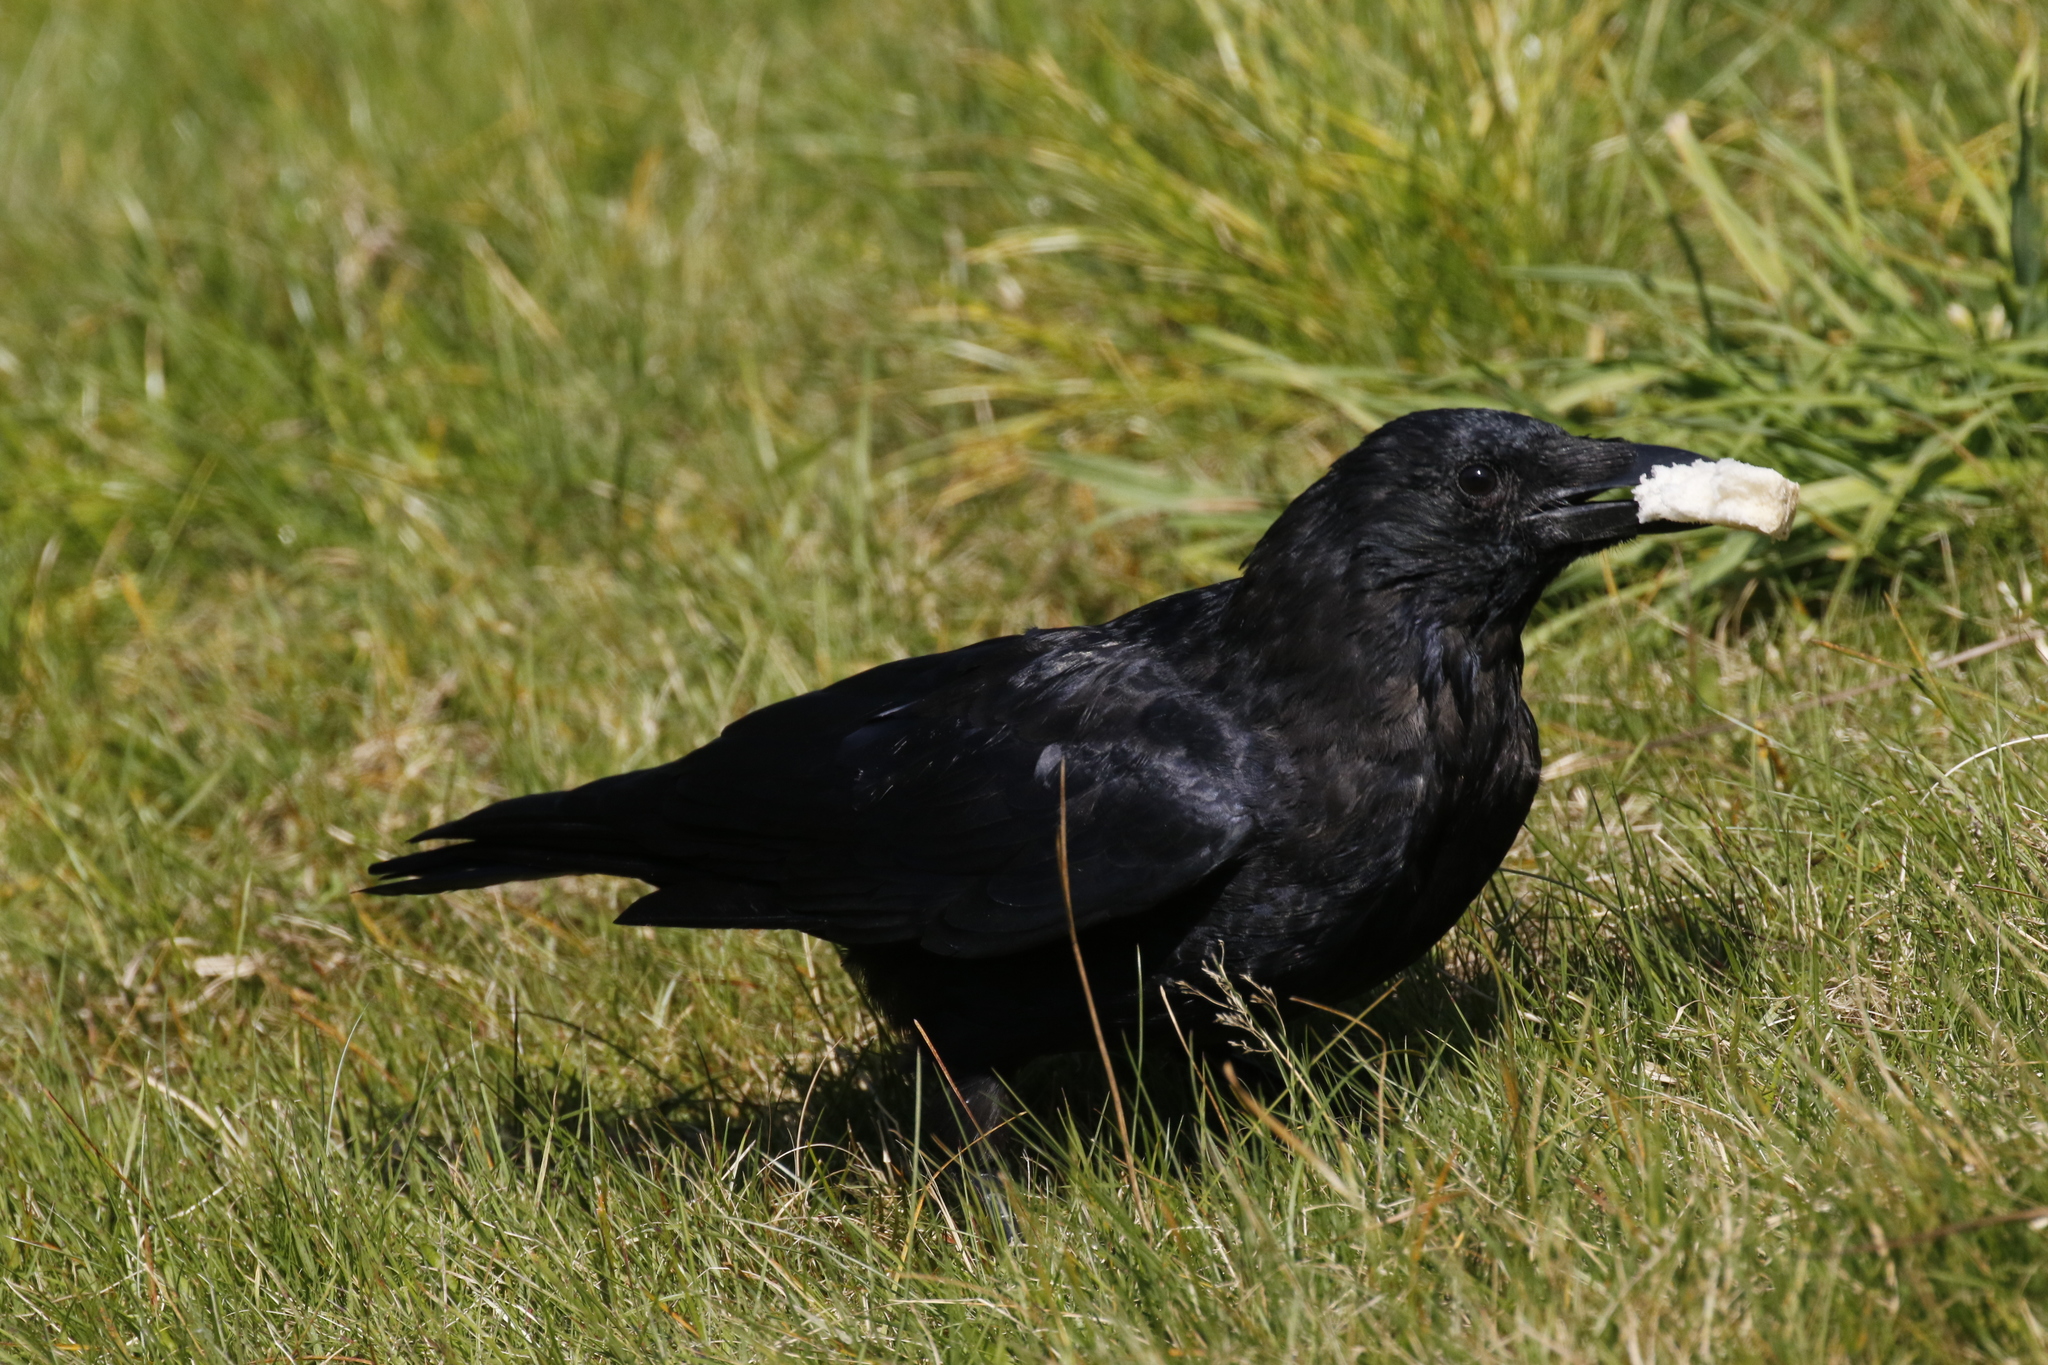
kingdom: Animalia
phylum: Chordata
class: Aves
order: Passeriformes
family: Corvidae
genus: Corvus
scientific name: Corvus corone
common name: Carrion crow
